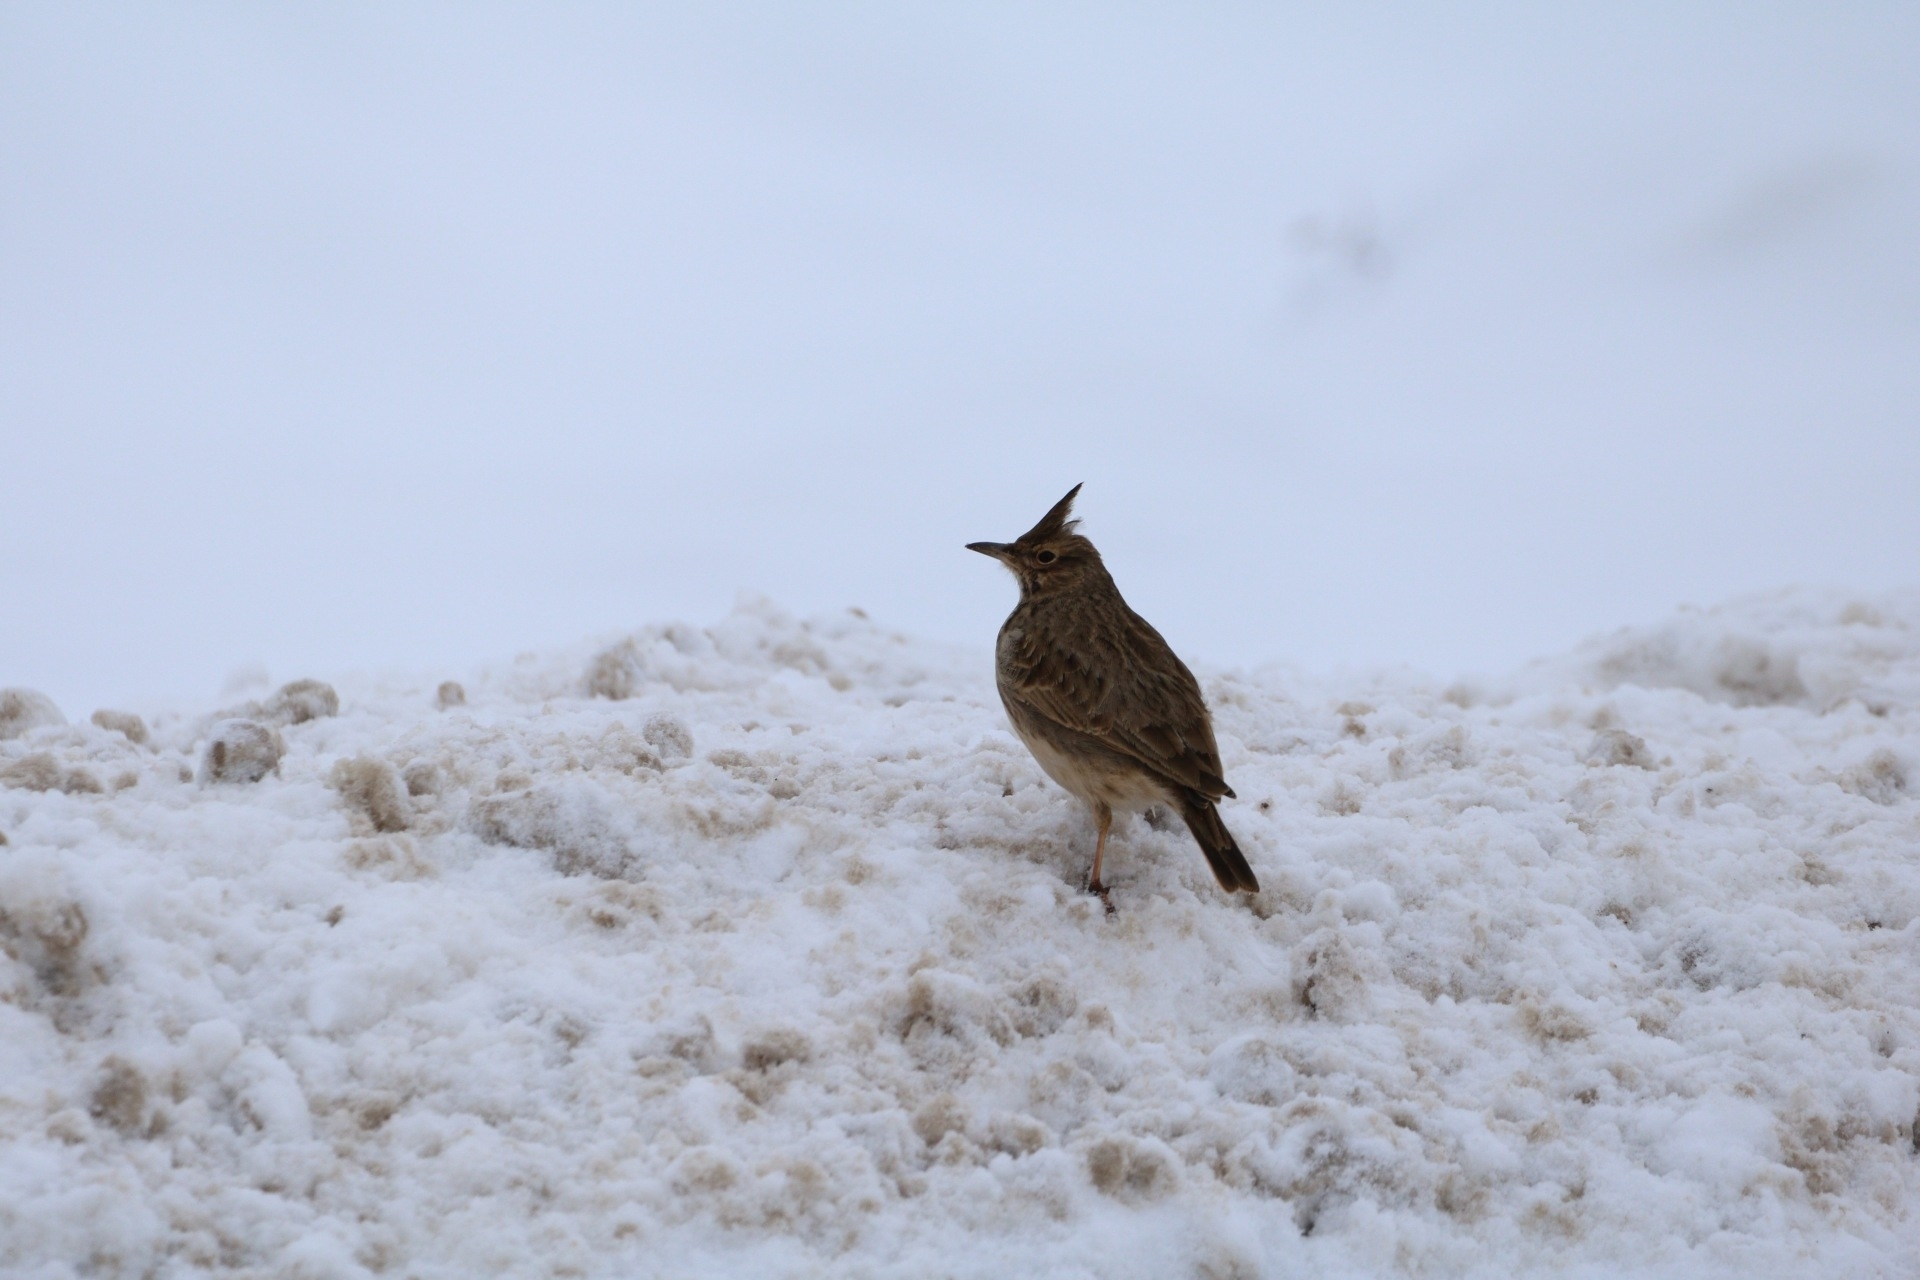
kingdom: Animalia
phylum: Chordata
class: Aves
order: Passeriformes
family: Alaudidae
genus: Galerida
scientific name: Galerida cristata
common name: Crested lark
